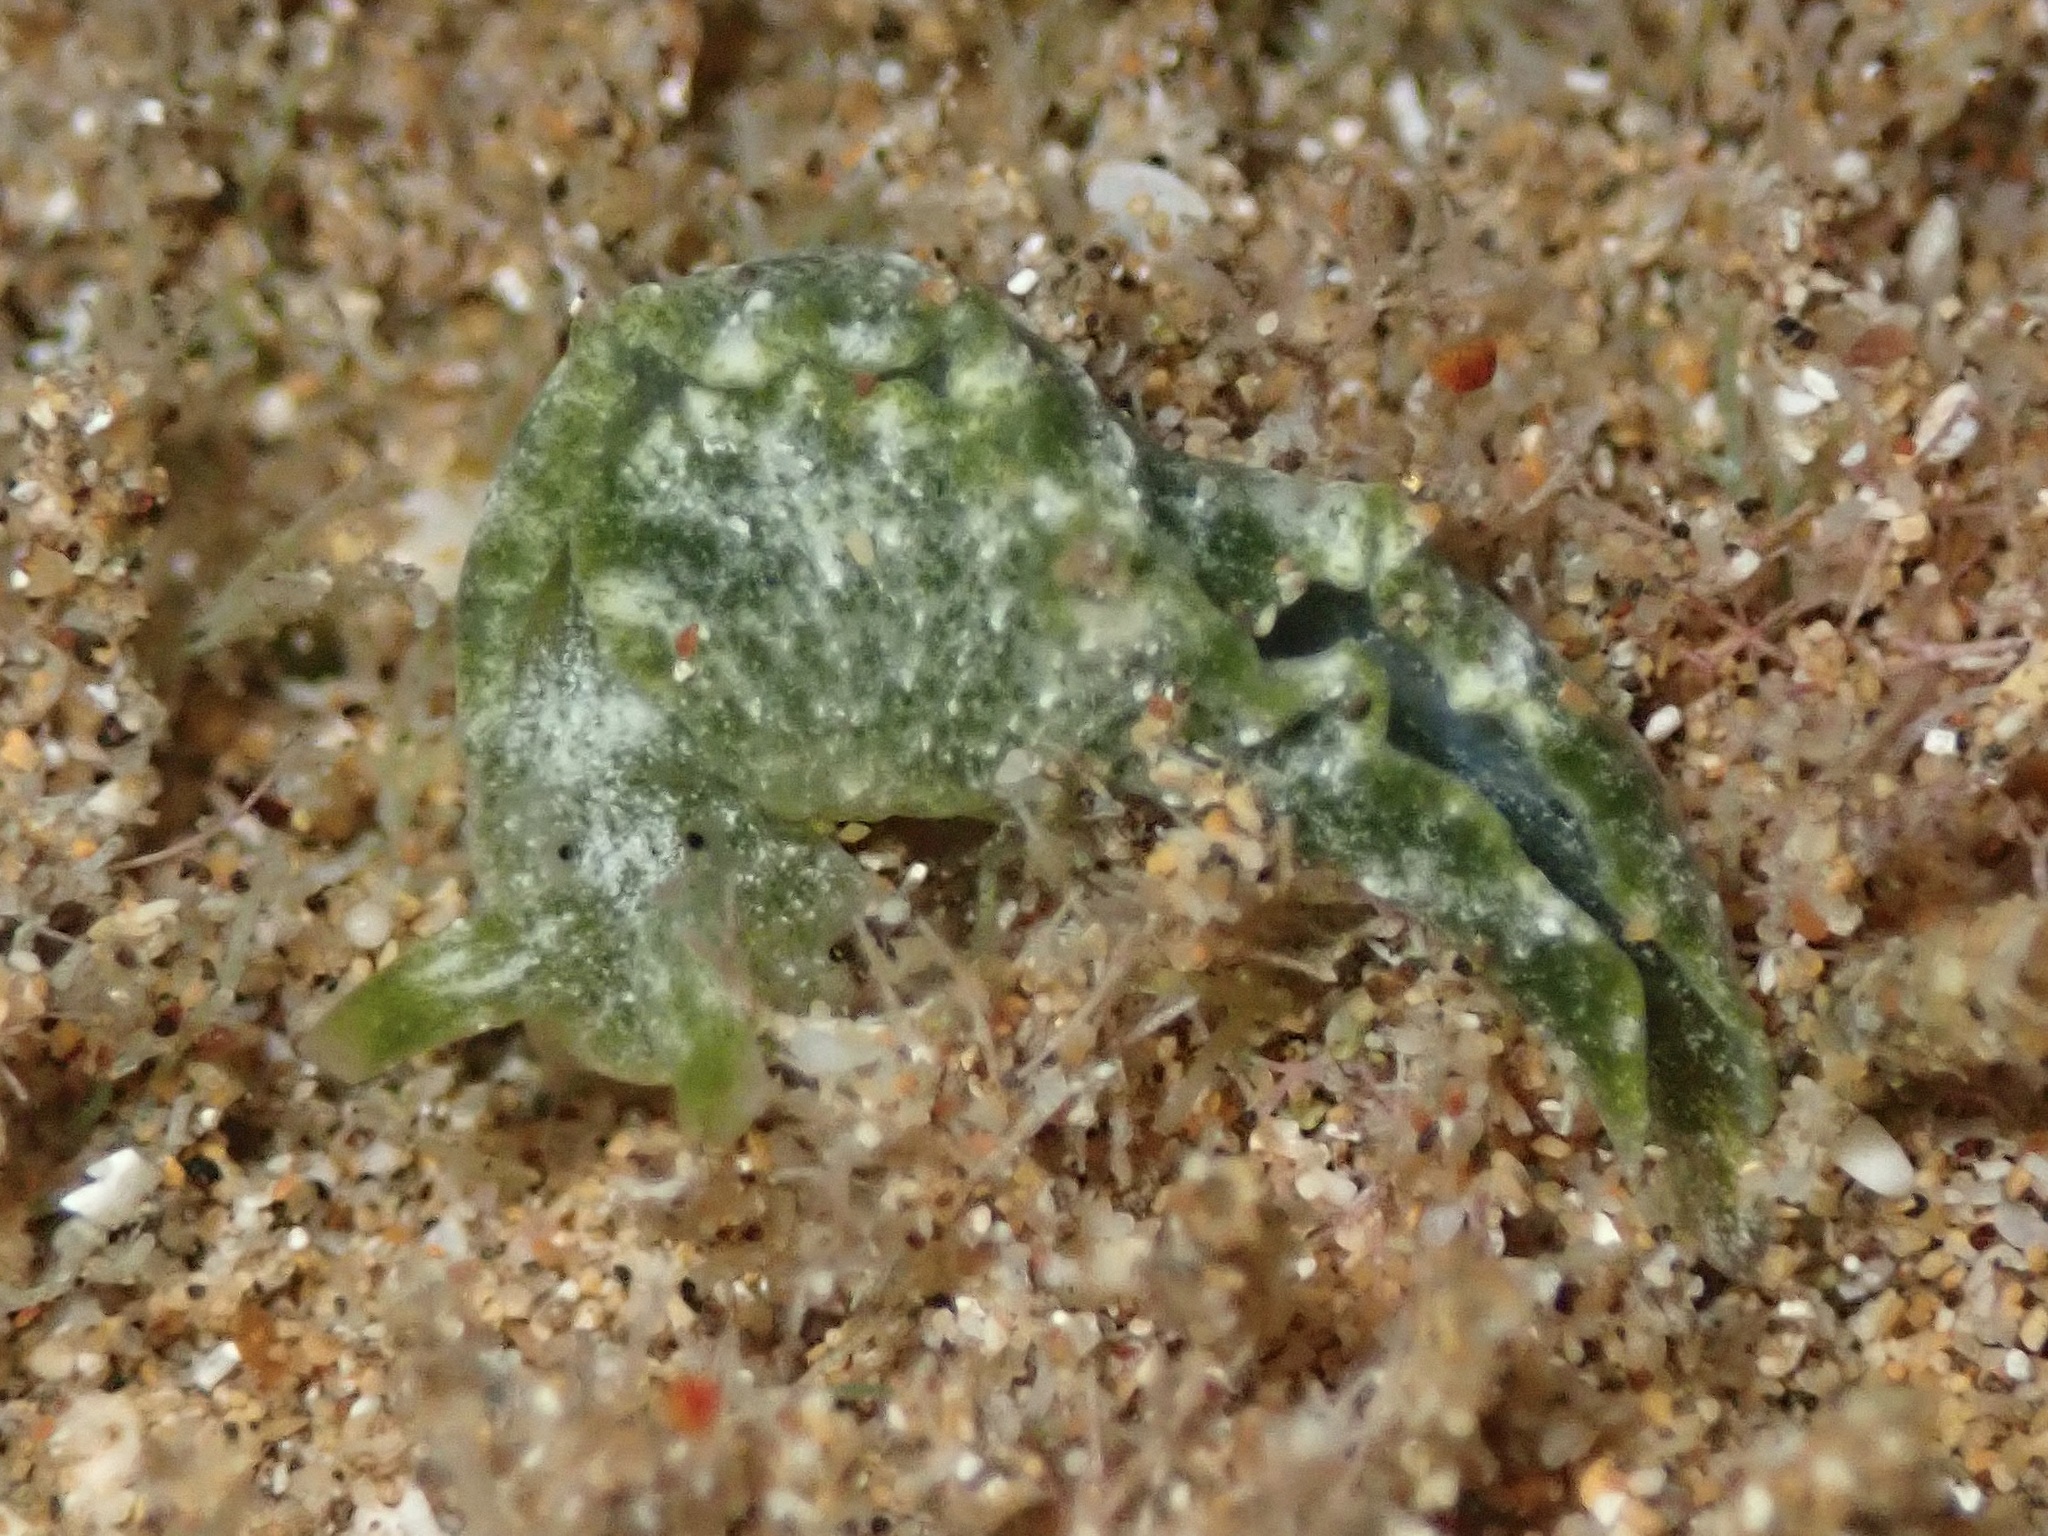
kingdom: Animalia
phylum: Mollusca
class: Gastropoda
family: Plakobranchidae
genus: Elysia
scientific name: Elysia nealae
